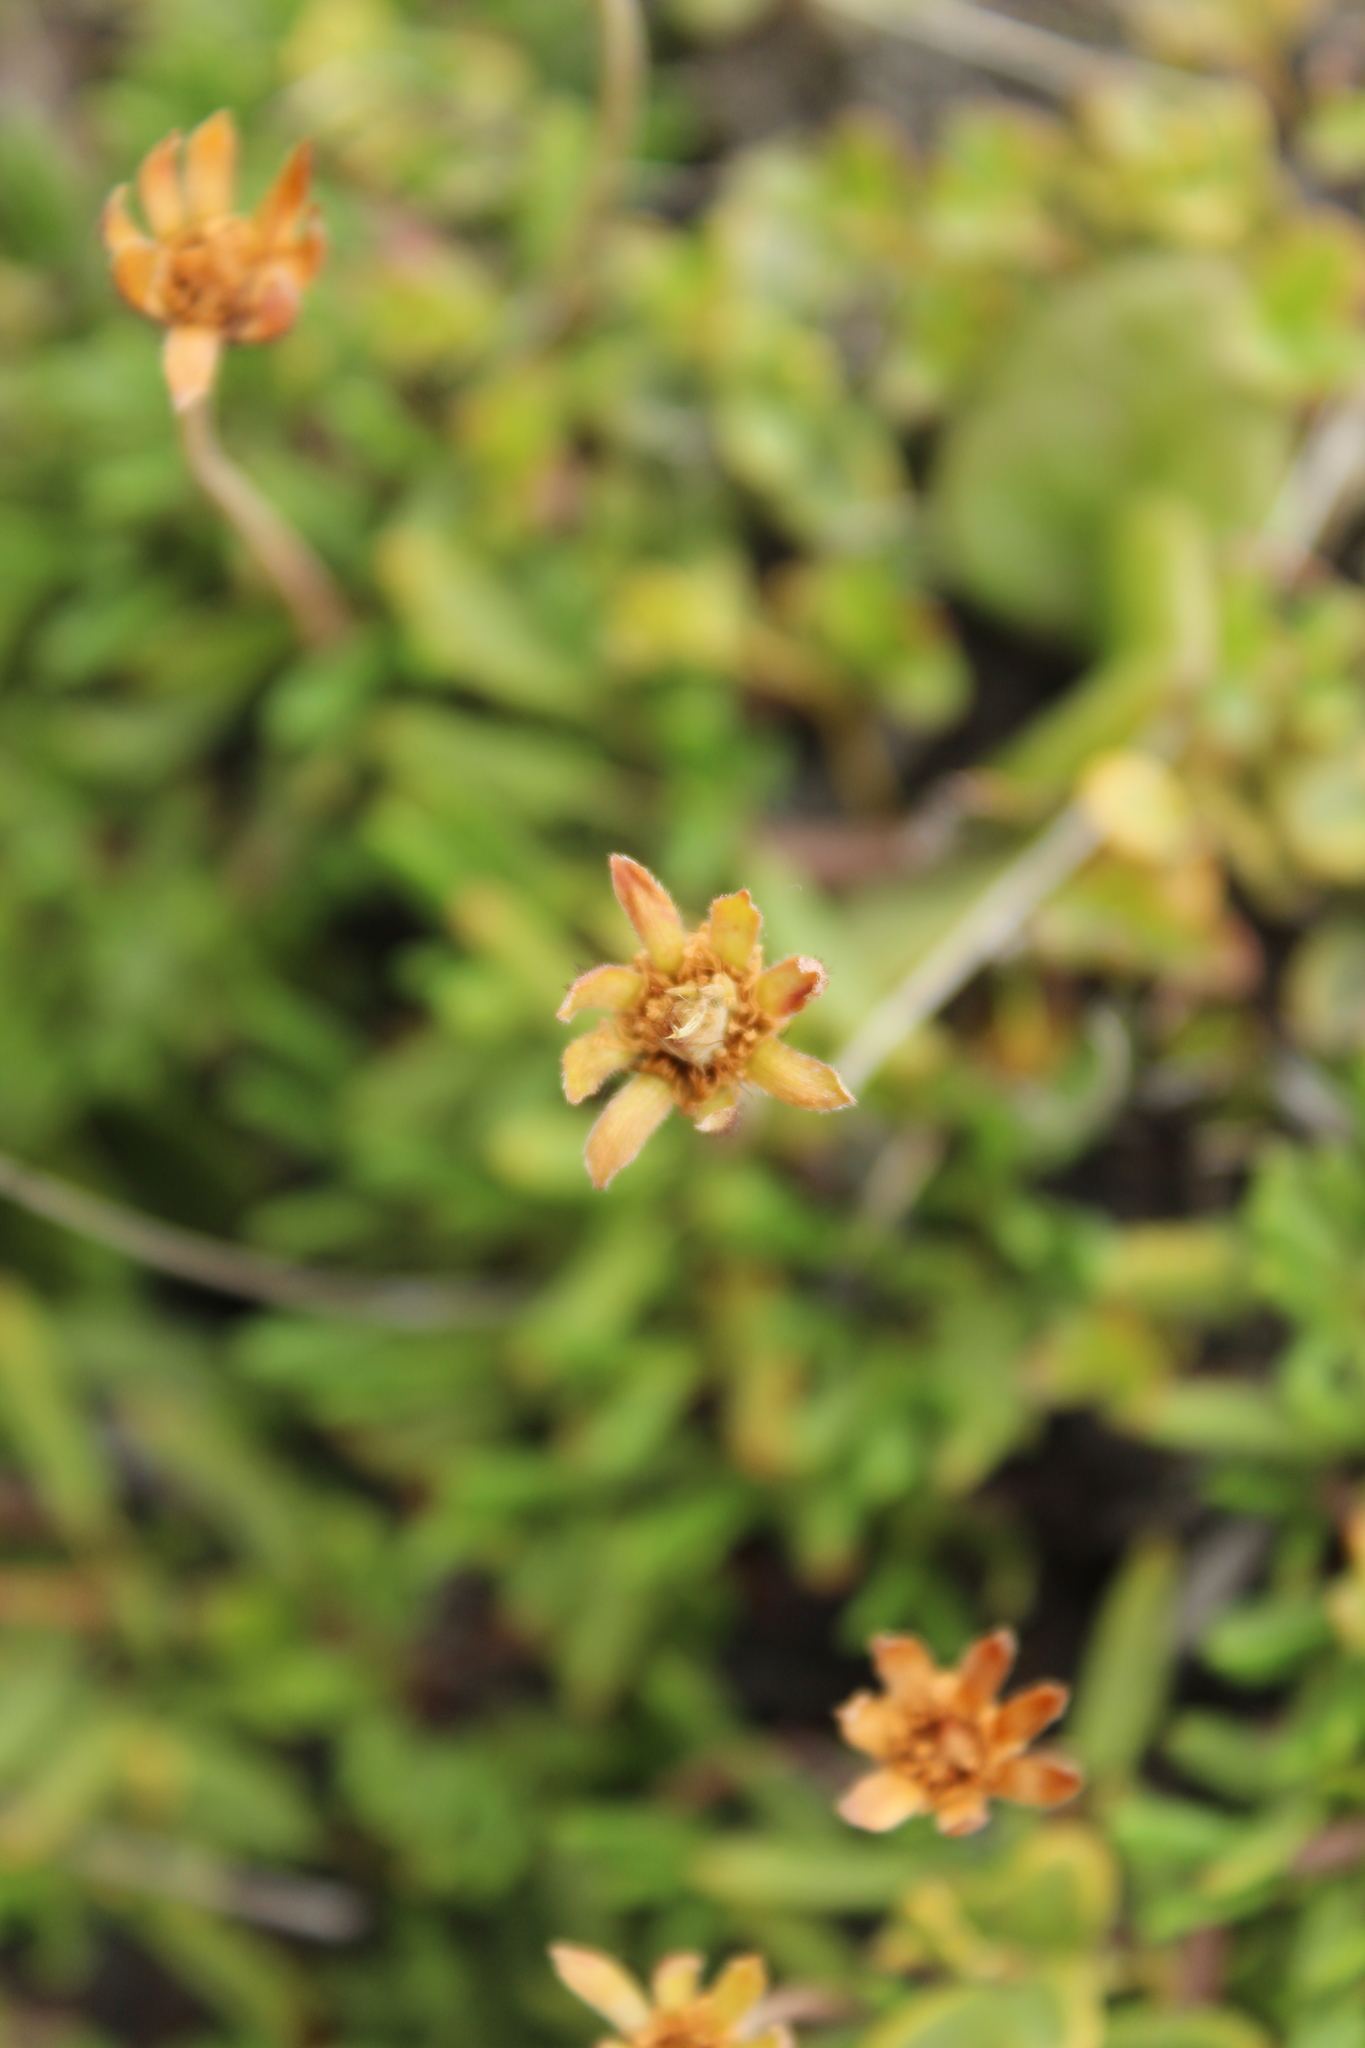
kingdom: Plantae
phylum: Tracheophyta
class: Magnoliopsida
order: Rosales
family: Rosaceae
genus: Dryas
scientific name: Dryas octopetala
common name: Eight-petal mountain-avens
